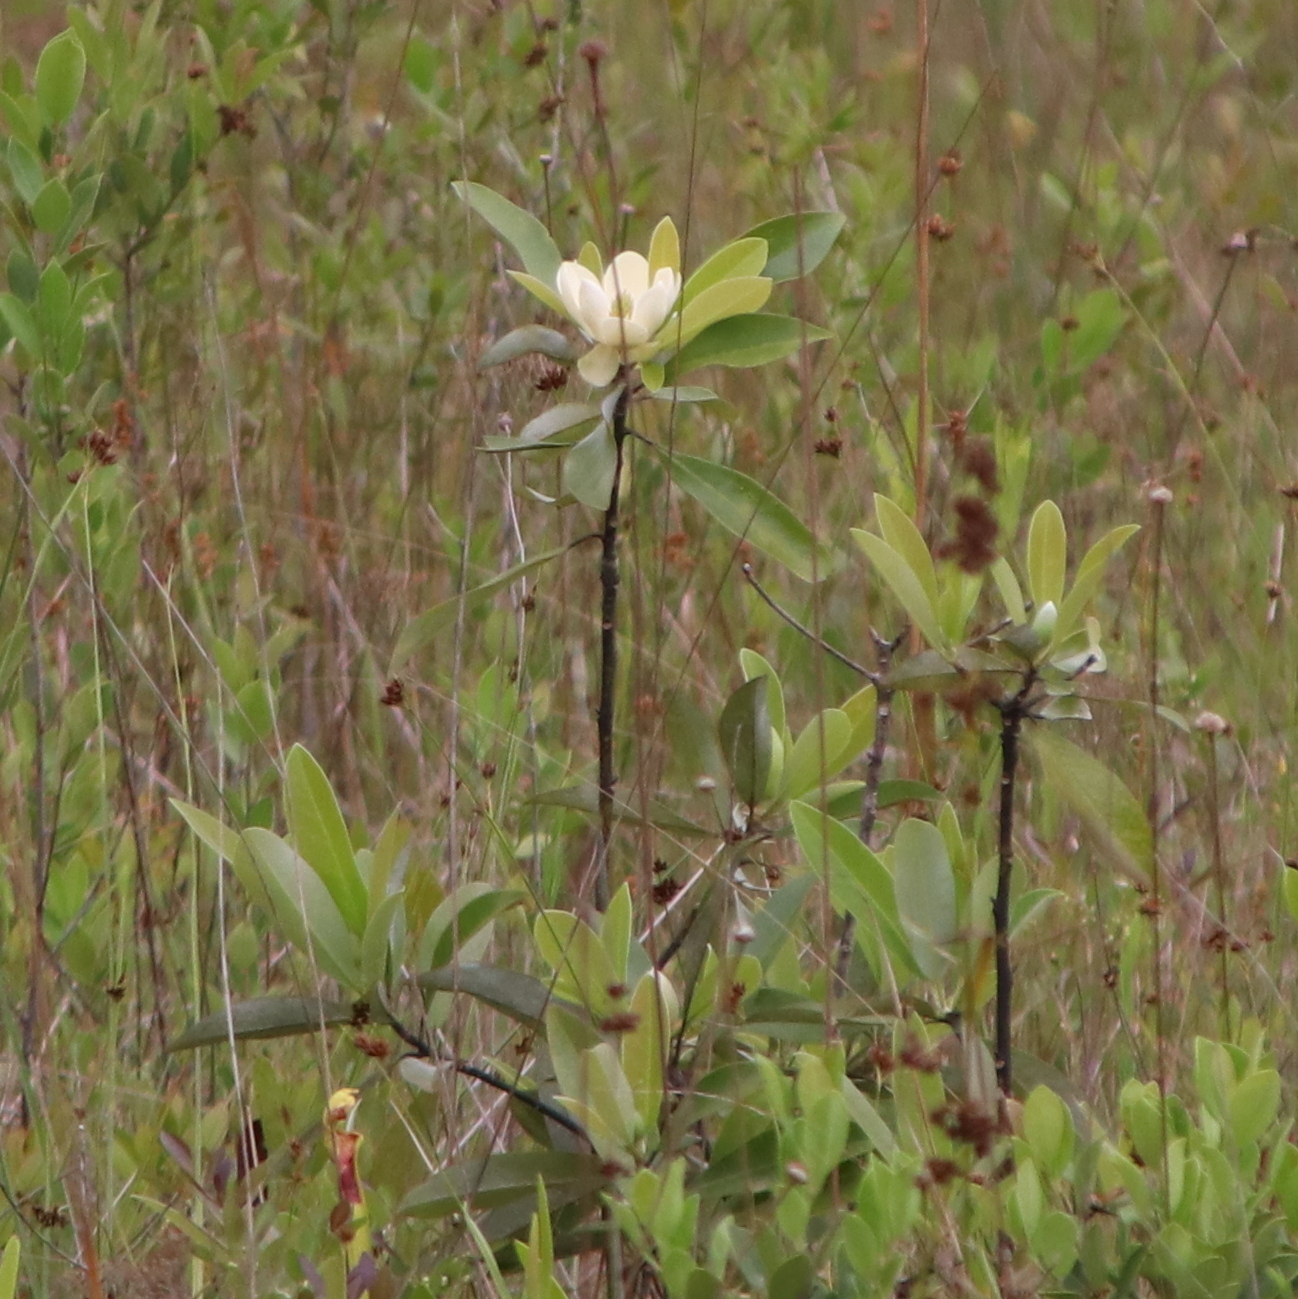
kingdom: Plantae
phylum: Tracheophyta
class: Magnoliopsida
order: Magnoliales
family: Magnoliaceae
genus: Magnolia
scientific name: Magnolia virginiana
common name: Swamp bay
